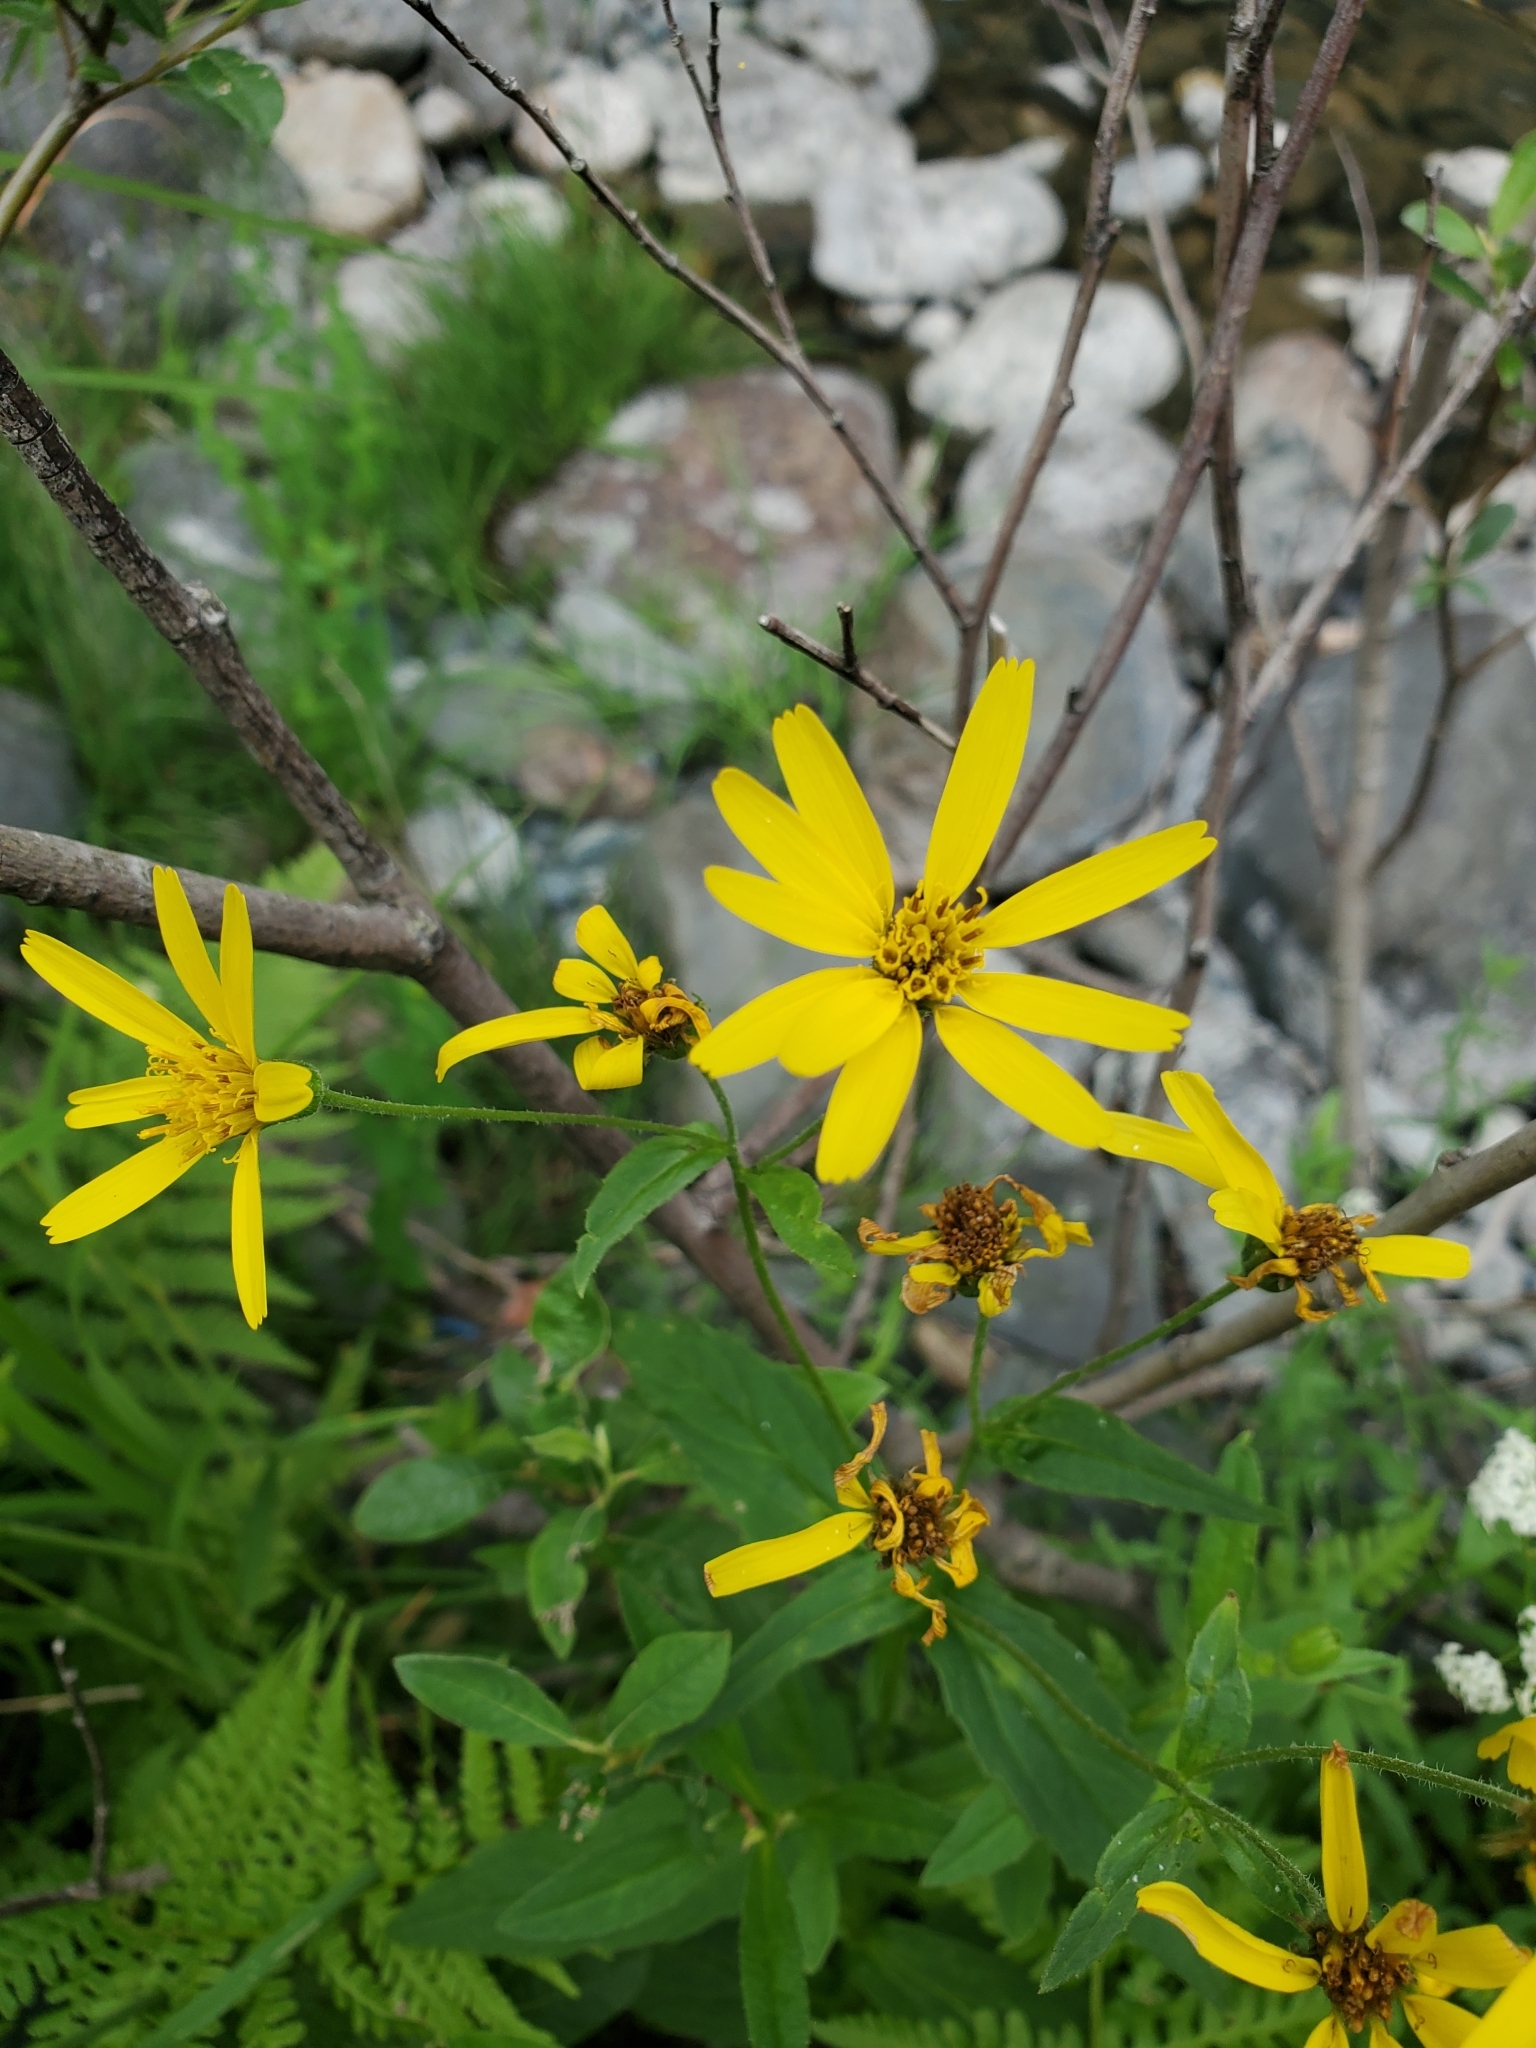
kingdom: Plantae
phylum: Tracheophyta
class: Magnoliopsida
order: Asterales
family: Asteraceae
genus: Arnica
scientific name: Arnica latifolia
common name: Arnica
